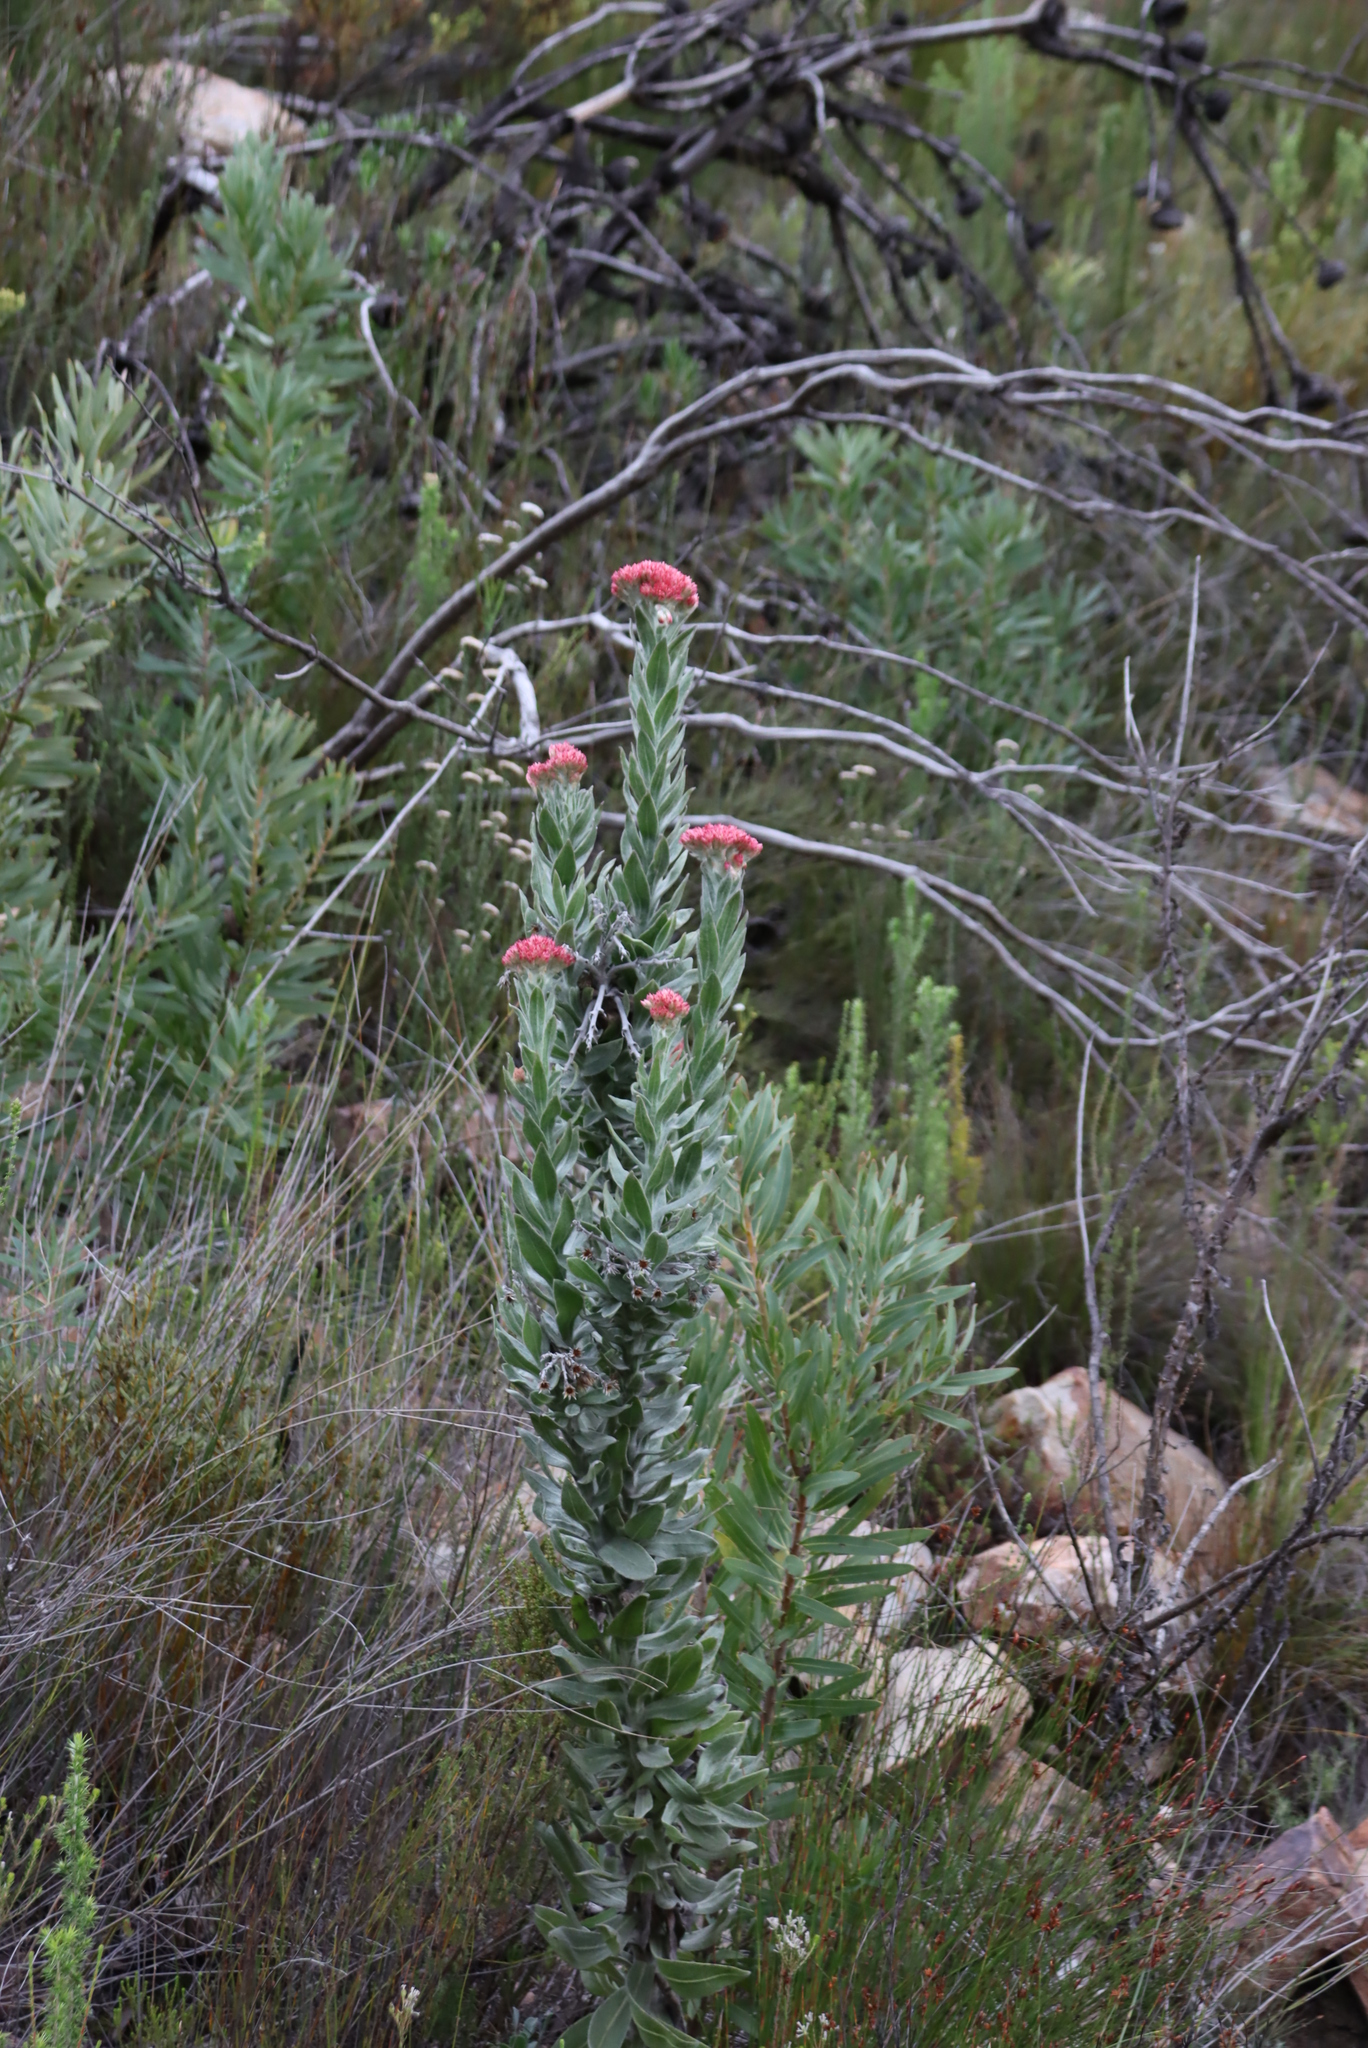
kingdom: Plantae
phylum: Tracheophyta
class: Magnoliopsida
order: Asterales
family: Asteraceae
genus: Syncarpha
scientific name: Syncarpha milleflora
